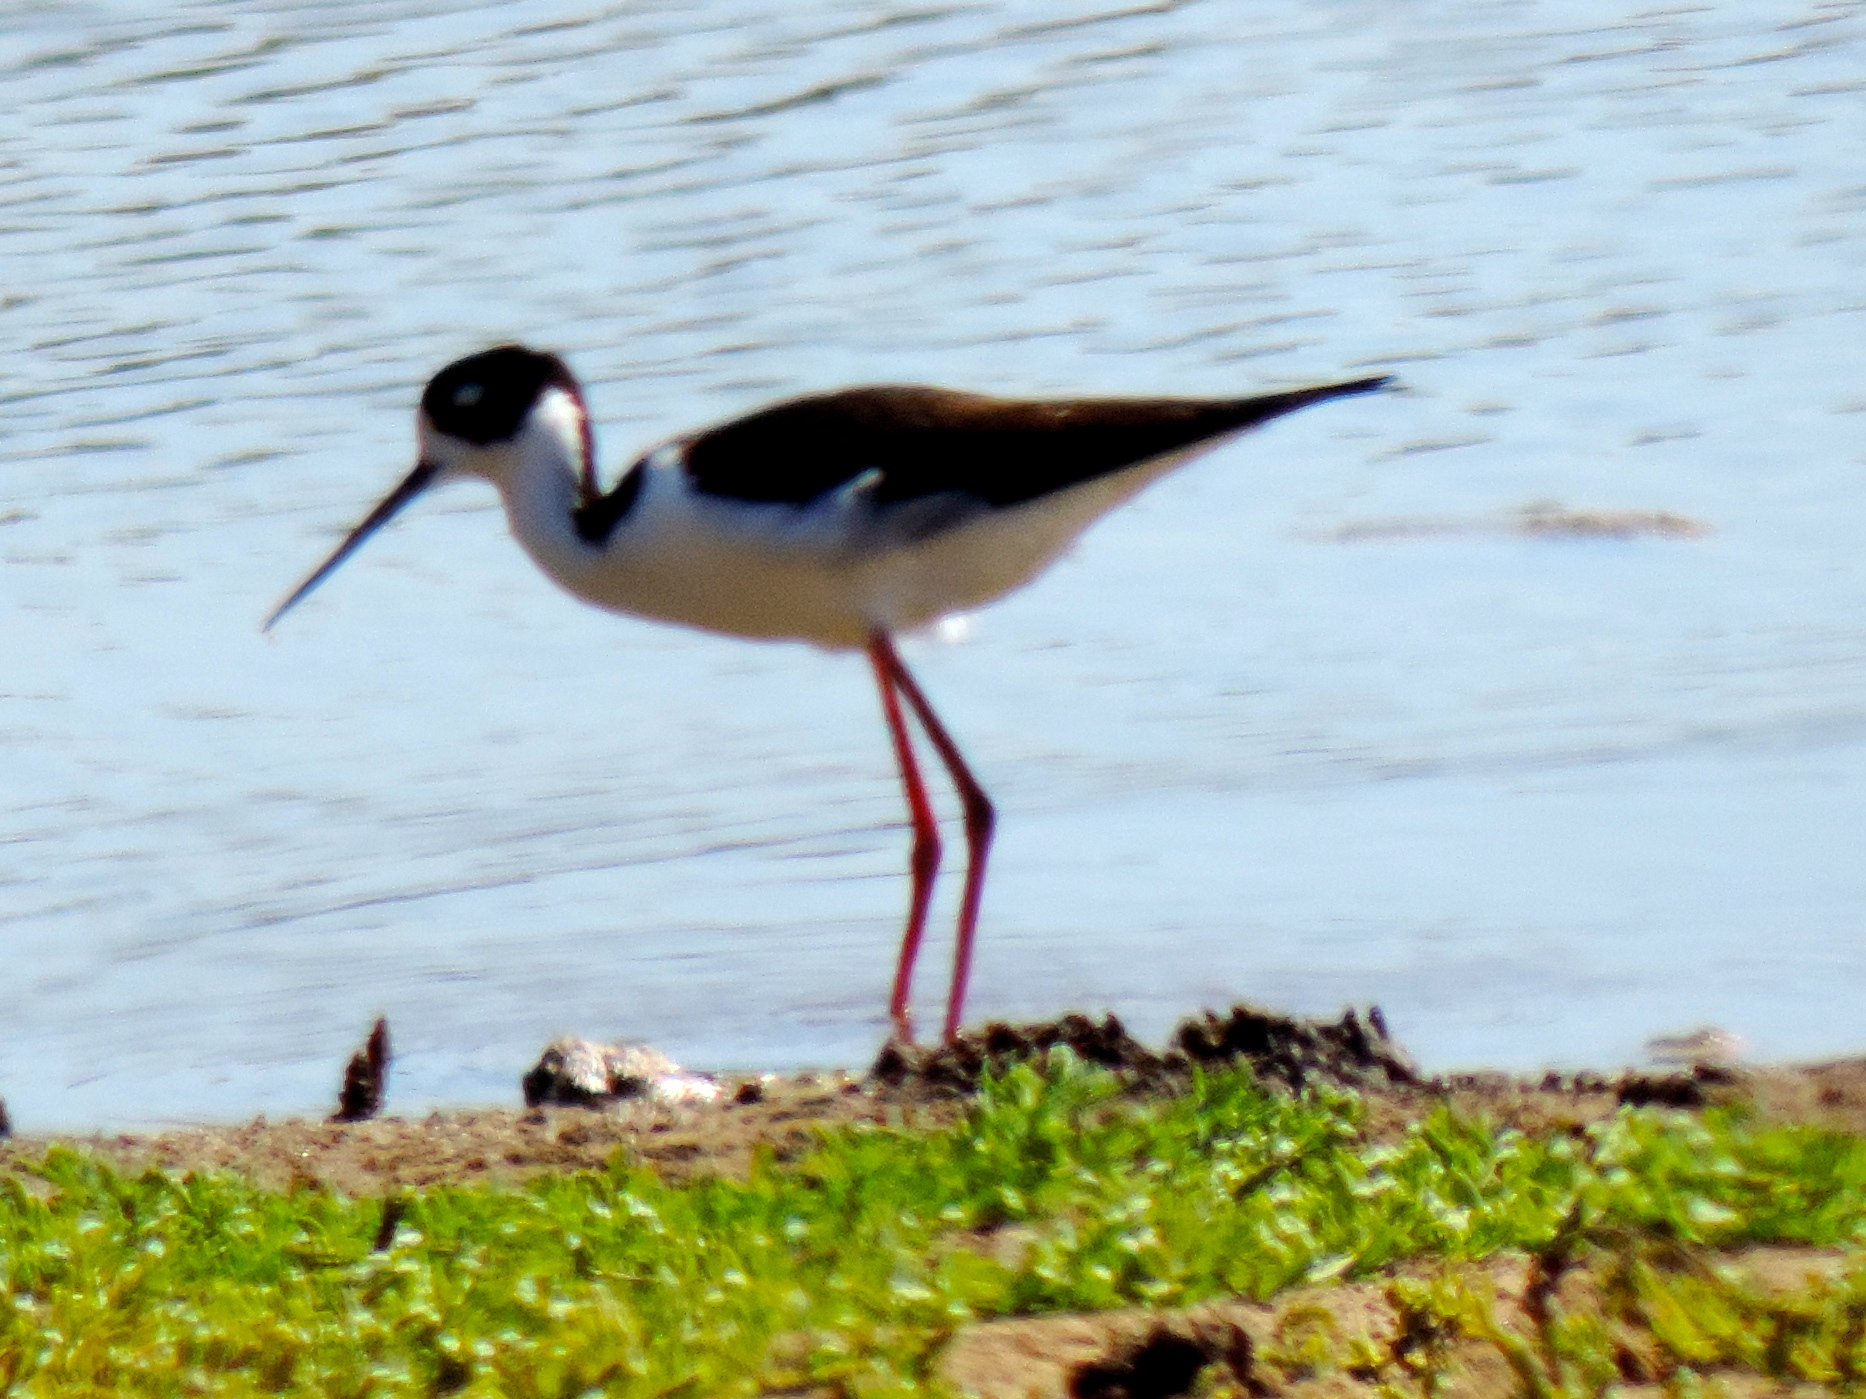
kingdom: Animalia
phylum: Chordata
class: Aves
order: Charadriiformes
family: Recurvirostridae
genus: Himantopus
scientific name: Himantopus mexicanus
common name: Black-necked stilt
